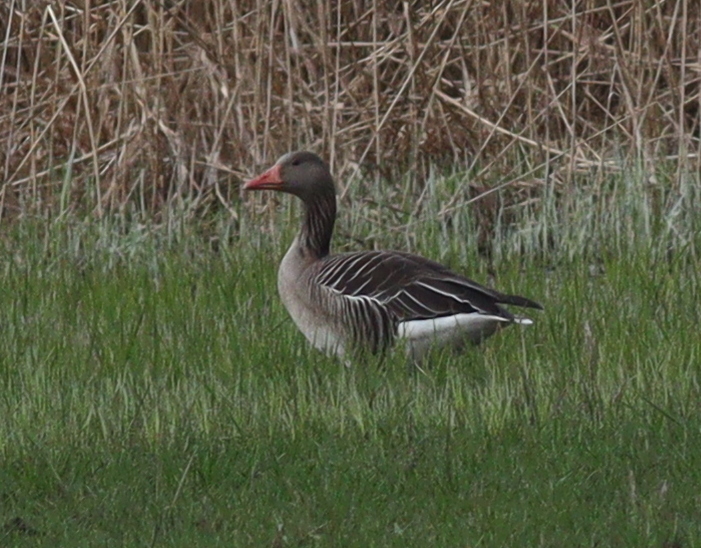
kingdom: Animalia
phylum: Chordata
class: Aves
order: Anseriformes
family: Anatidae
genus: Anser
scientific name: Anser anser
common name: Greylag goose
